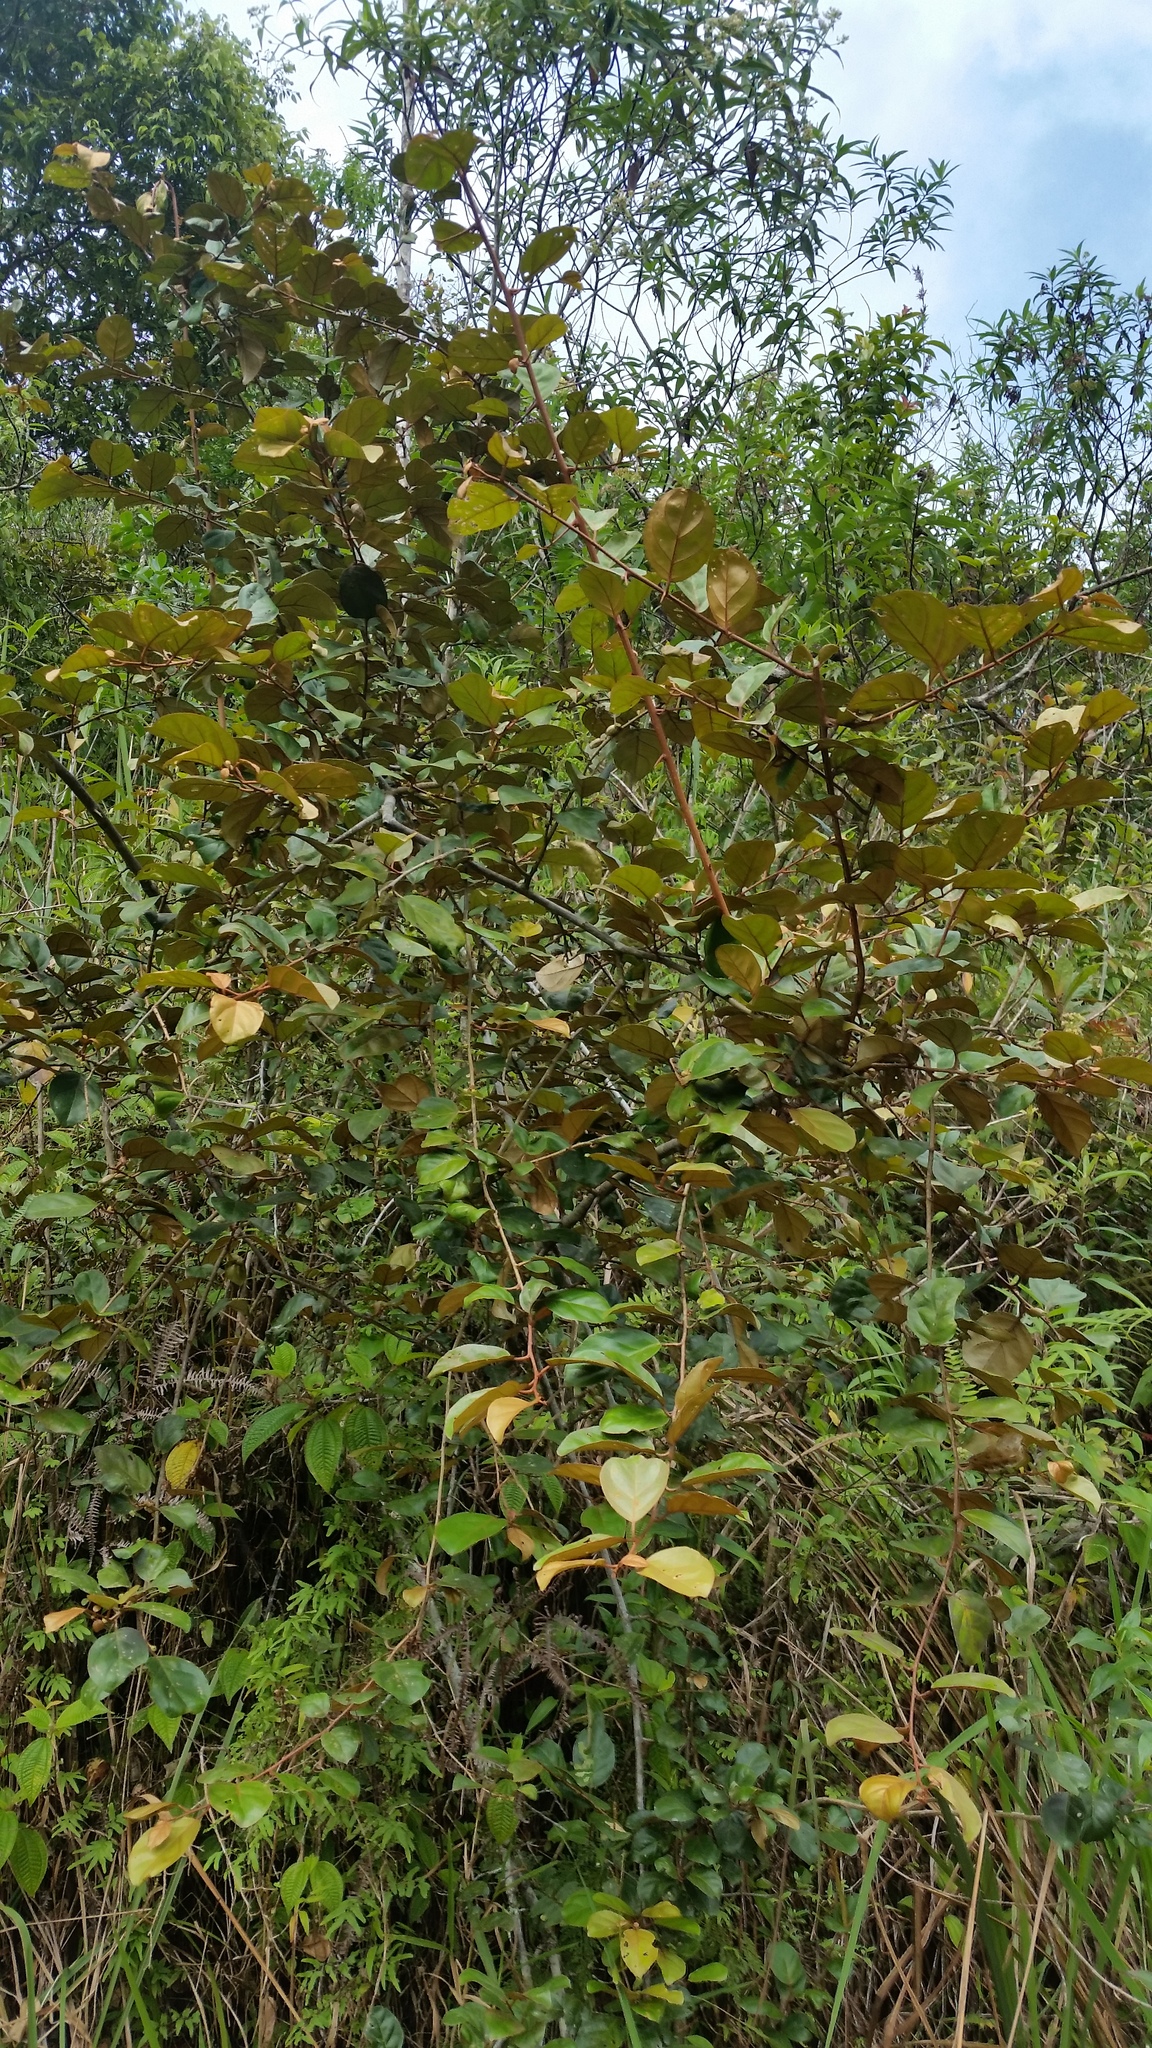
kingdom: Plantae
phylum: Tracheophyta
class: Magnoliopsida
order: Rosales
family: Elaeagnaceae
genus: Elaeagnus
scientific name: Elaeagnus latifolia
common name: Oleaster
